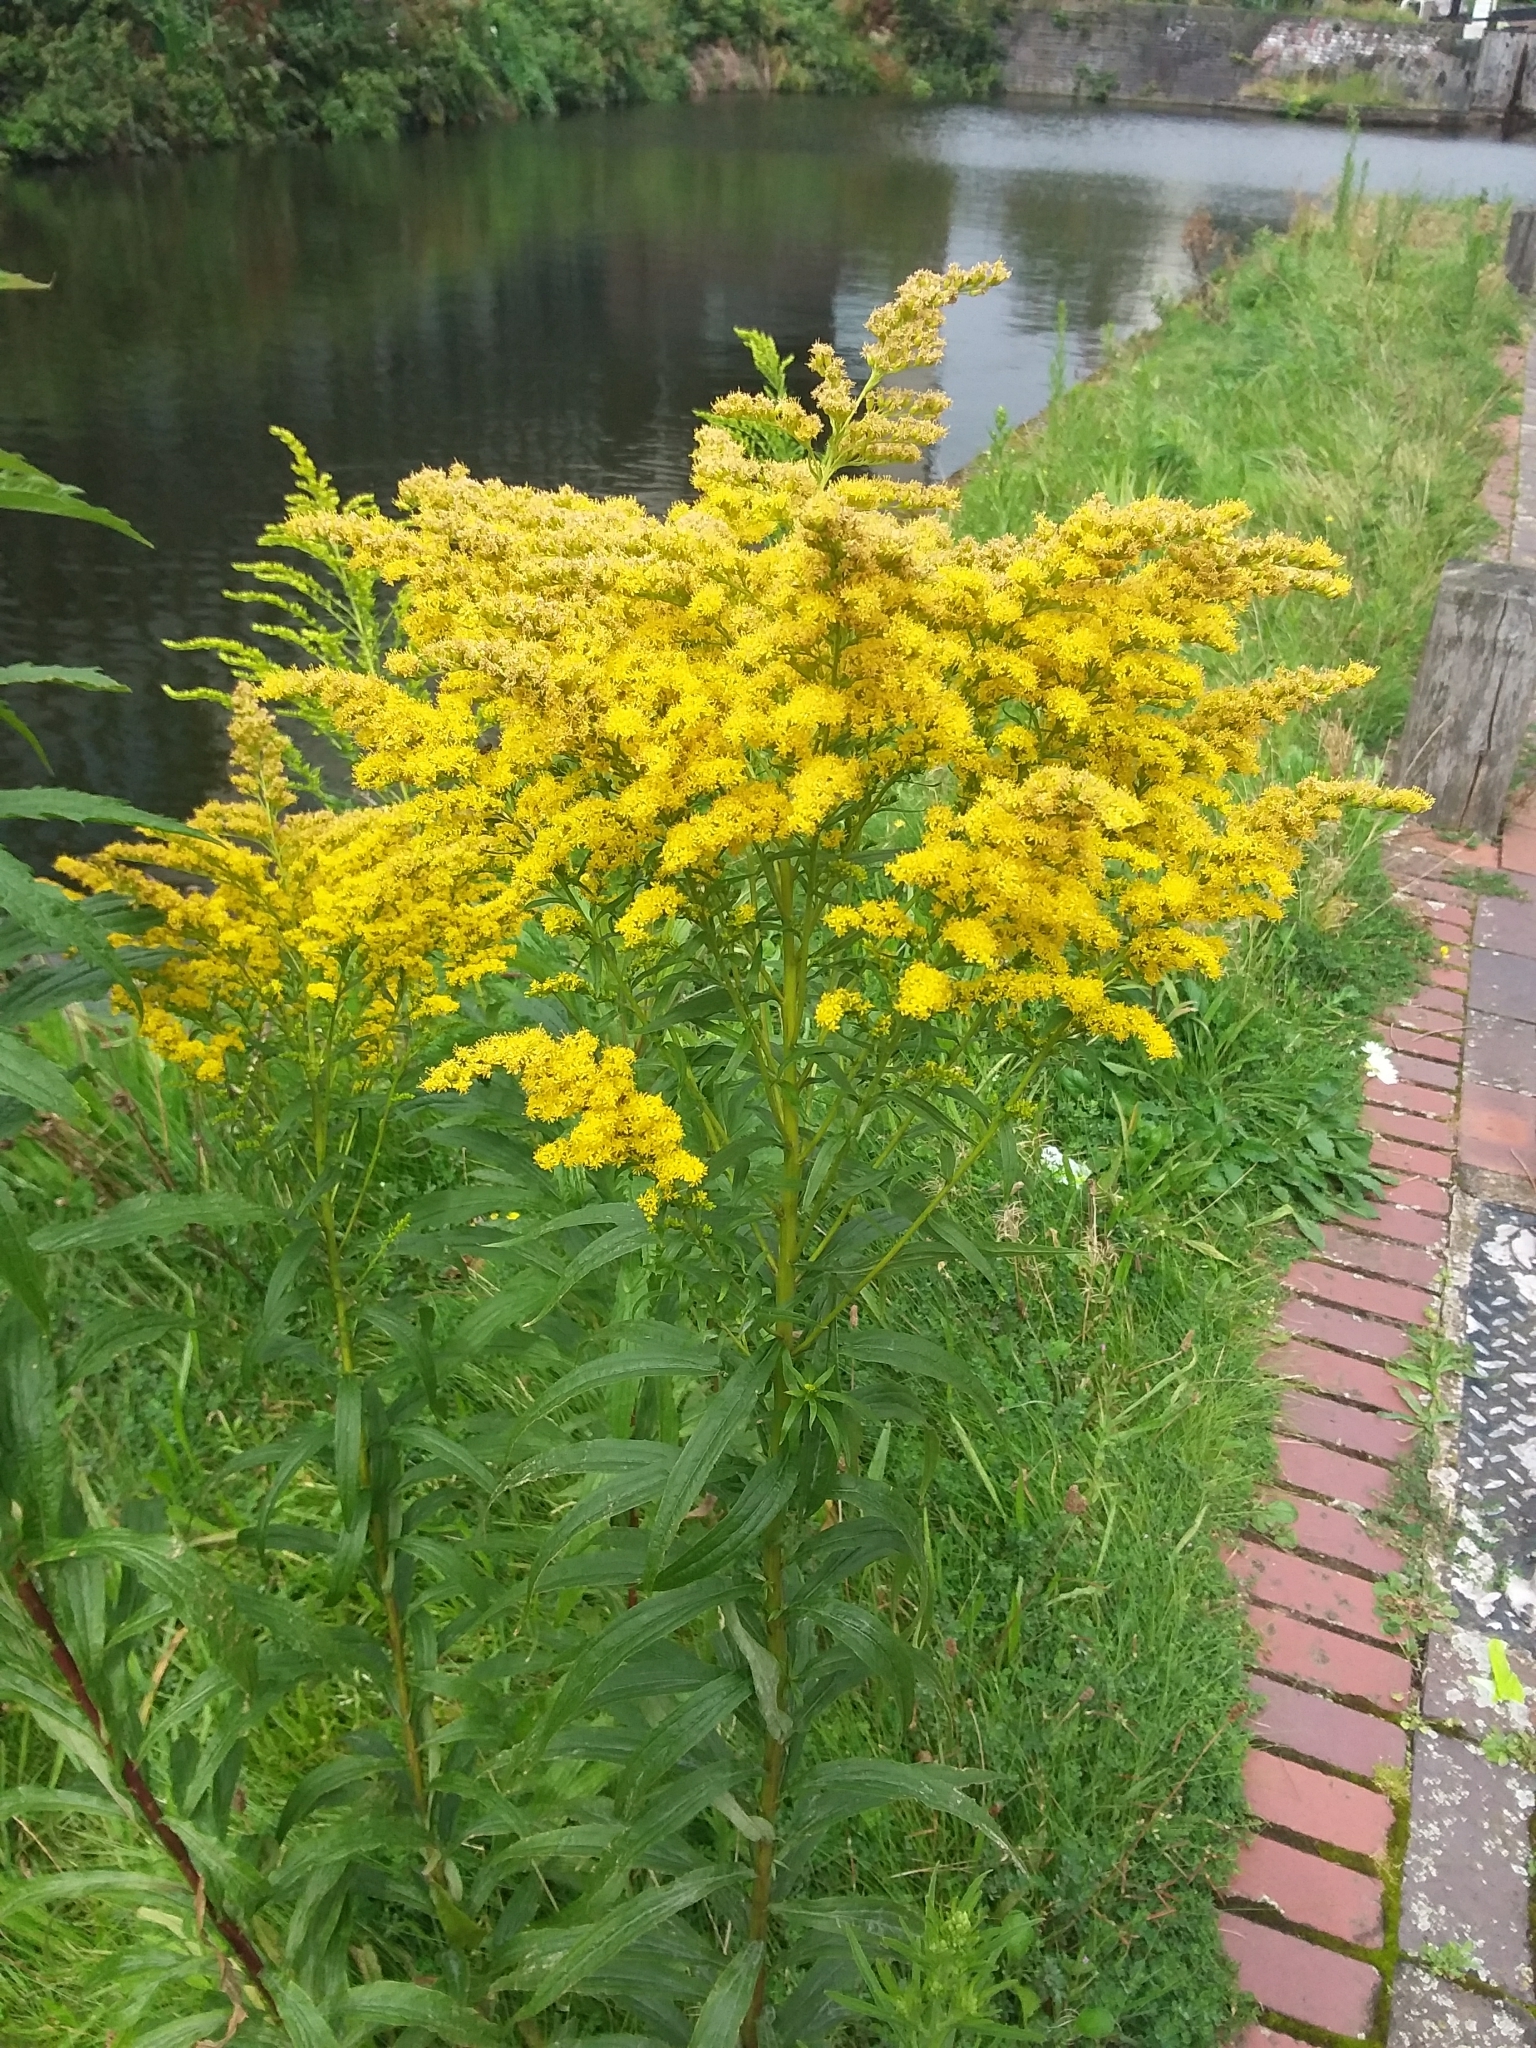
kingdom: Plantae
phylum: Tracheophyta
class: Magnoliopsida
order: Asterales
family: Asteraceae
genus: Solidago
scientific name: Solidago canadensis
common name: Canada goldenrod
